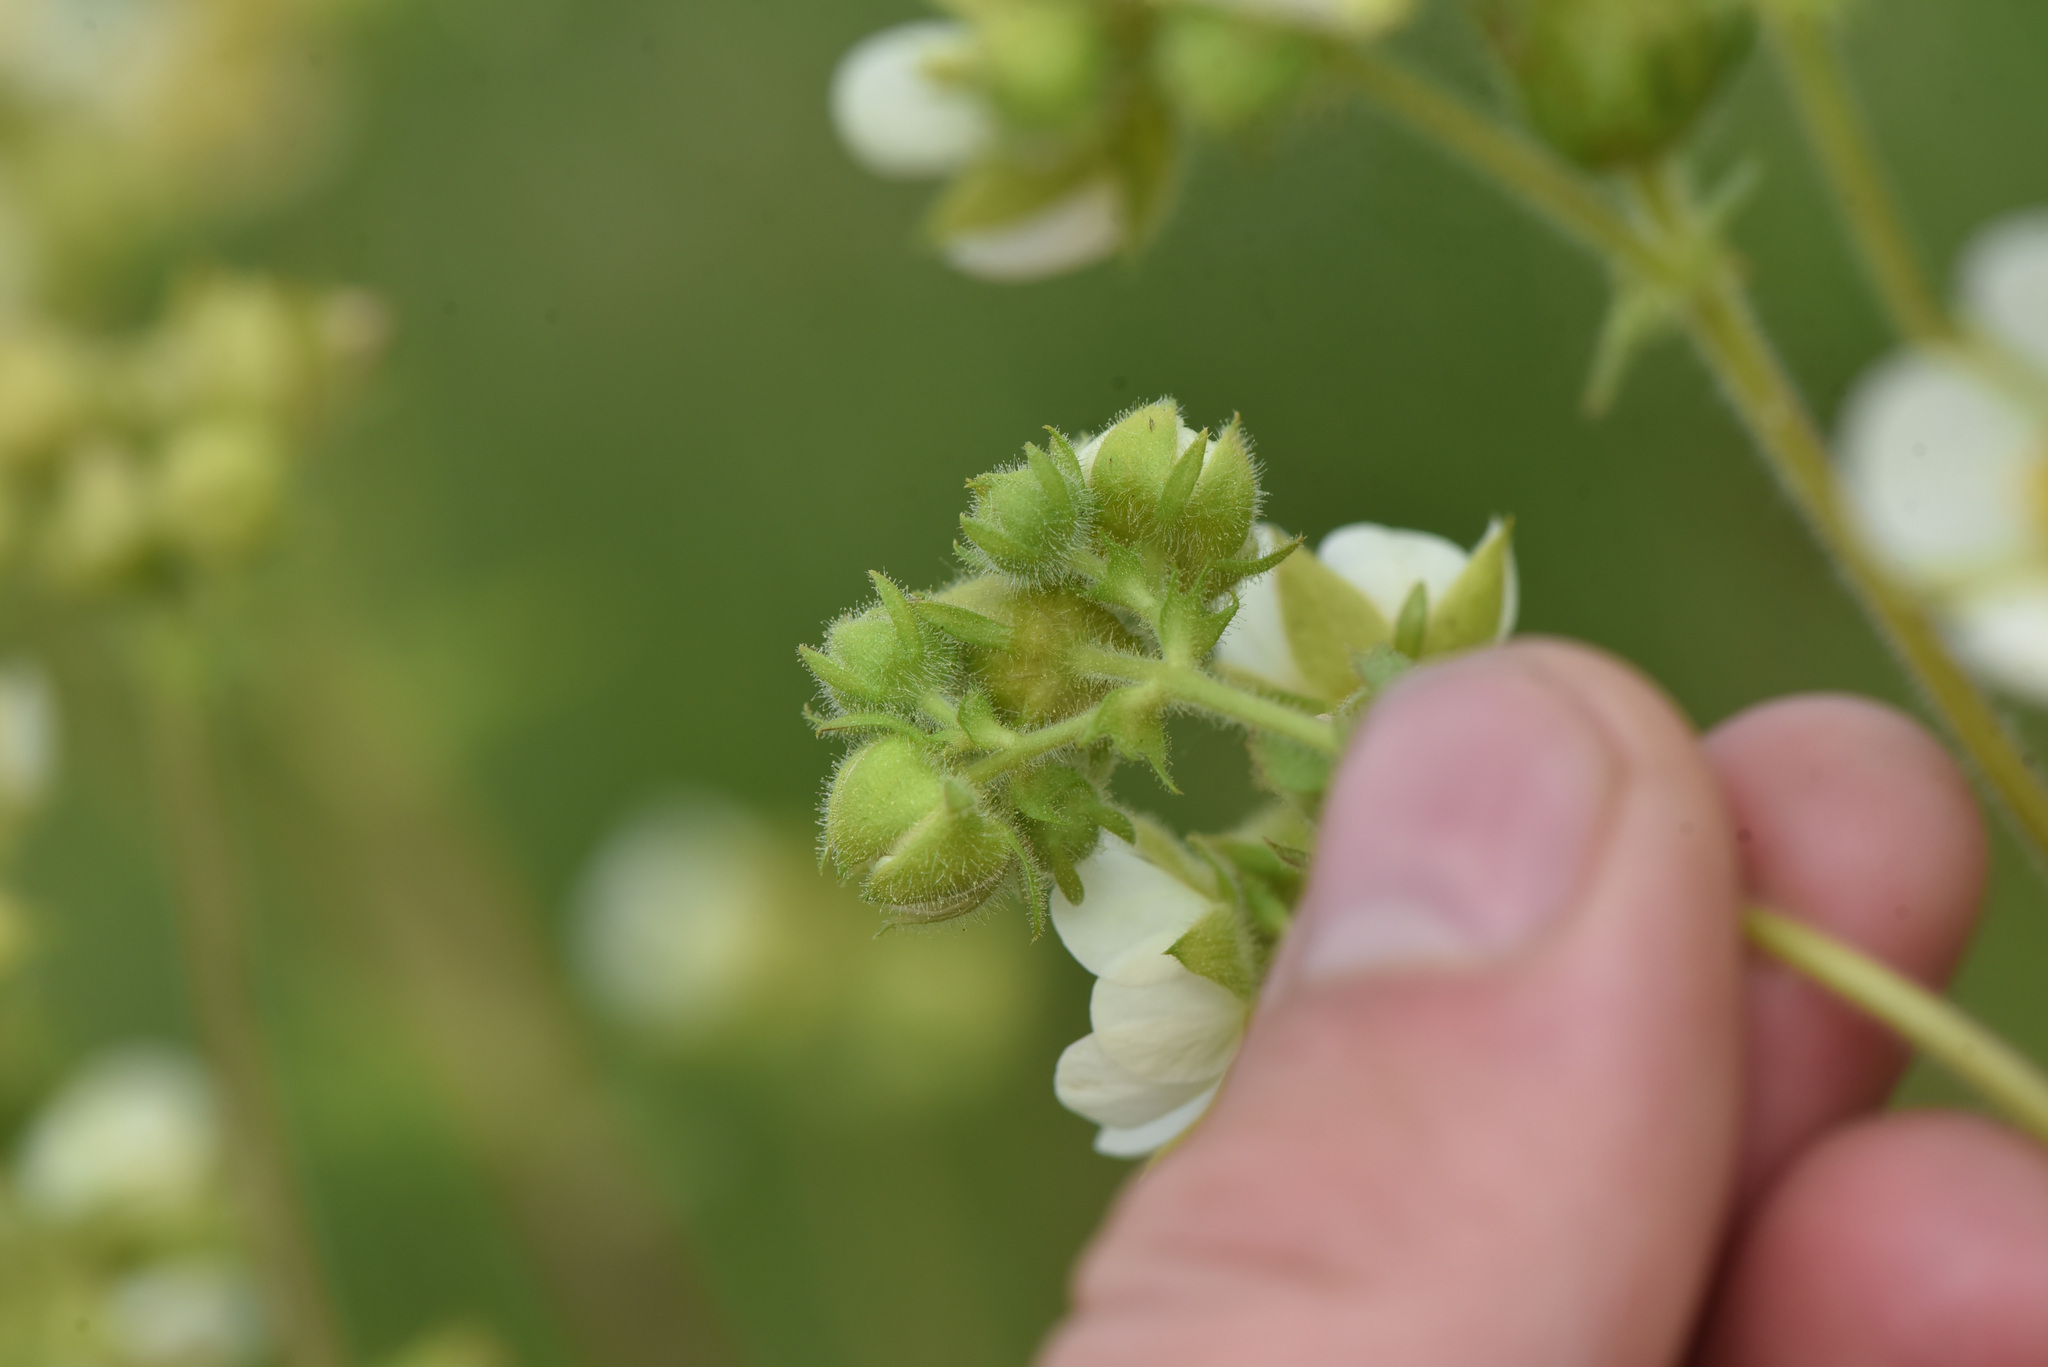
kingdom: Plantae
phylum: Tracheophyta
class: Magnoliopsida
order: Rosales
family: Rosaceae
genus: Drymocallis
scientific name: Drymocallis convallaria
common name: Cream cinquefoil
